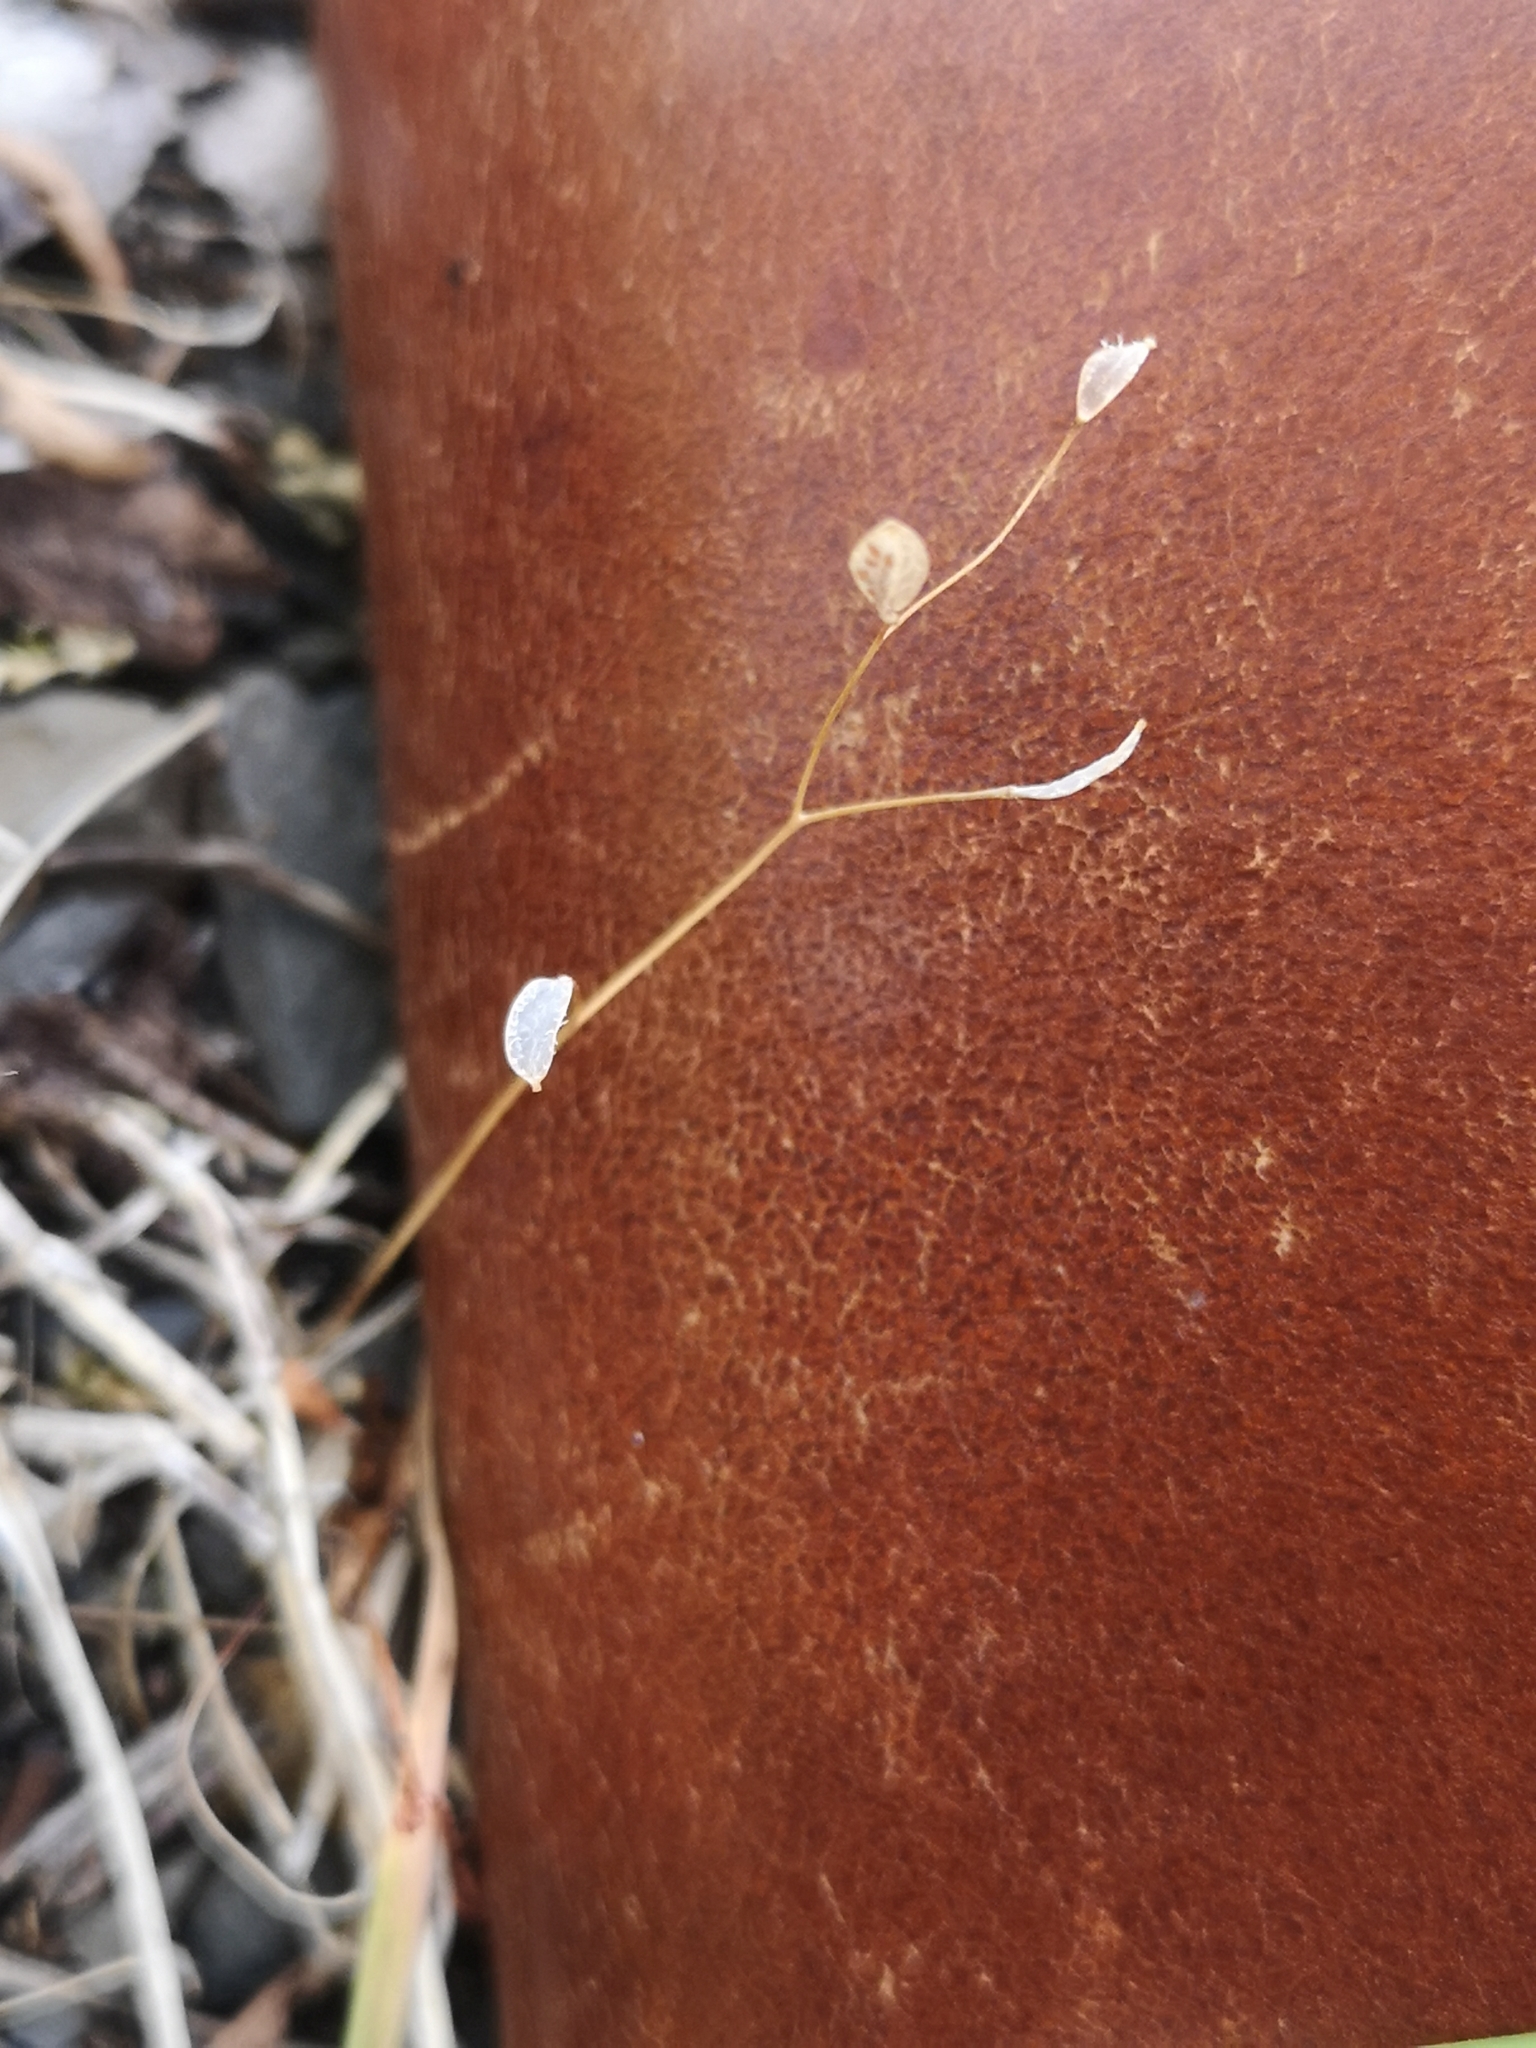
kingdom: Plantae
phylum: Tracheophyta
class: Magnoliopsida
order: Brassicales
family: Brassicaceae
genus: Draba
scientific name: Draba verna
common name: Spring draba
